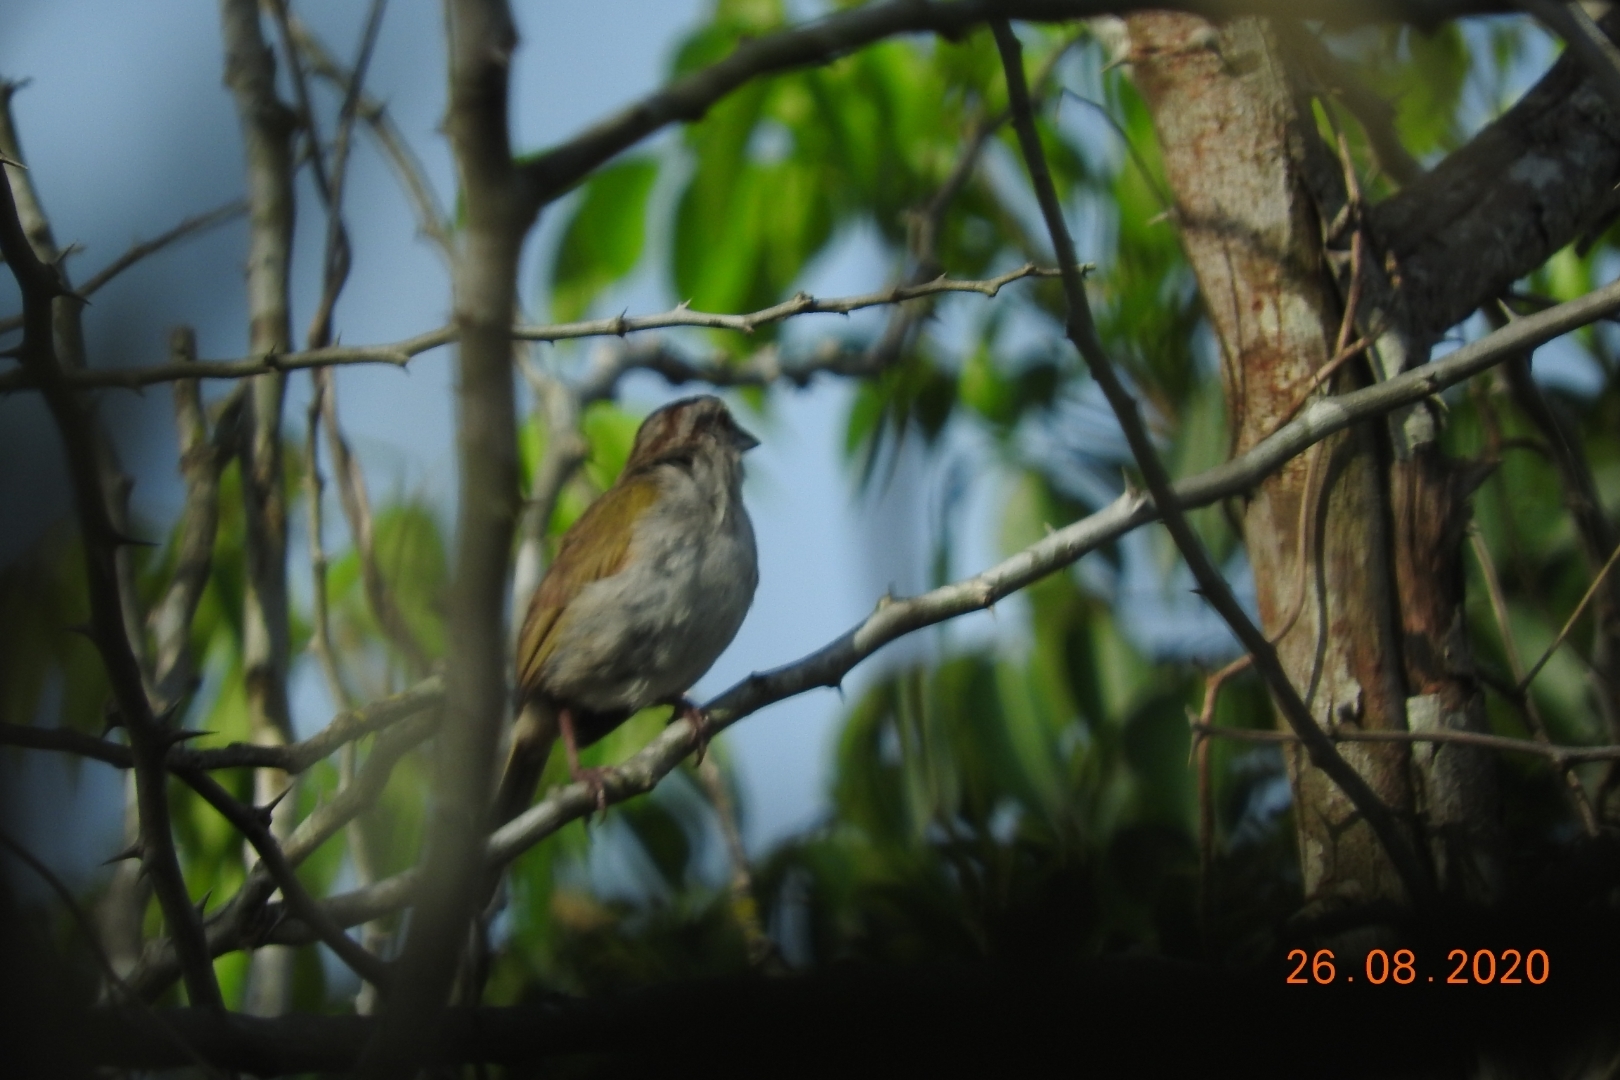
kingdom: Animalia
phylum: Chordata
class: Aves
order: Passeriformes
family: Passerellidae
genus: Arremonops
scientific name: Arremonops chloronotus
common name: Green-backed sparrow
